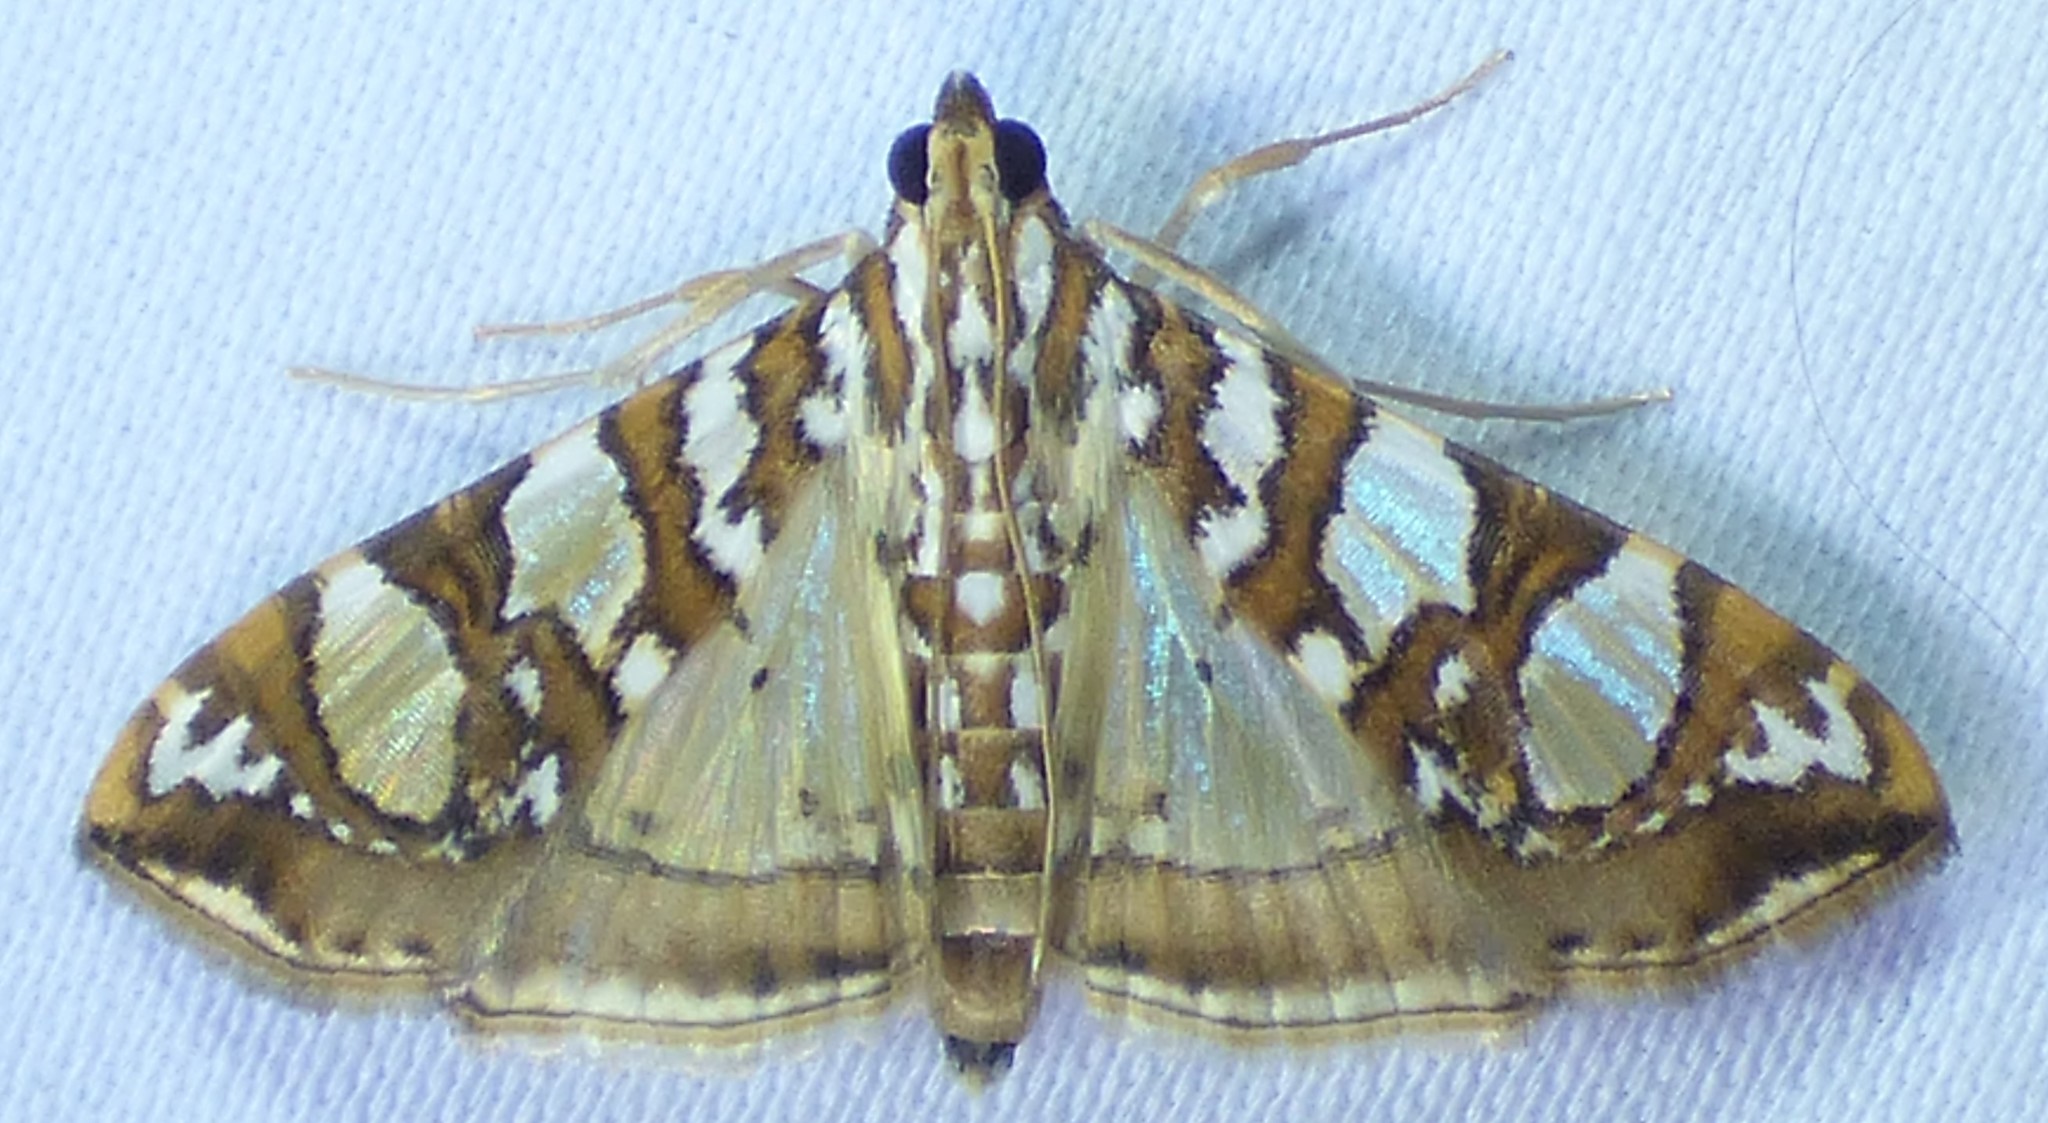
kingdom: Animalia
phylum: Arthropoda
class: Insecta
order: Lepidoptera
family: Crambidae
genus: Glyphodes
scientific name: Glyphodes sibillalis
